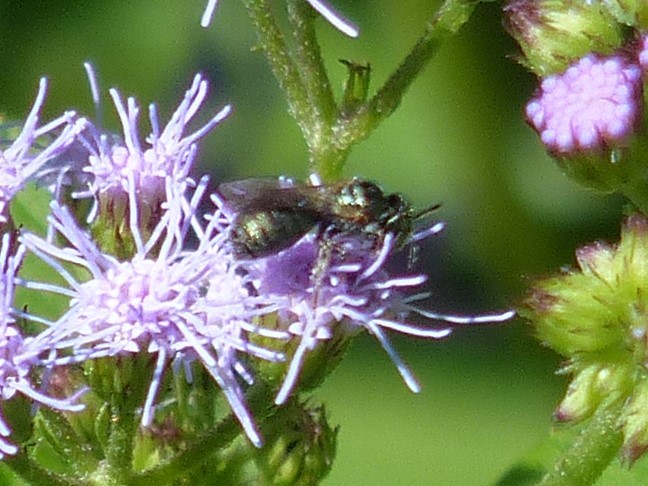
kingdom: Animalia
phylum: Arthropoda
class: Insecta
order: Hymenoptera
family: Apidae
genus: Zadontomerus
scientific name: Zadontomerus
